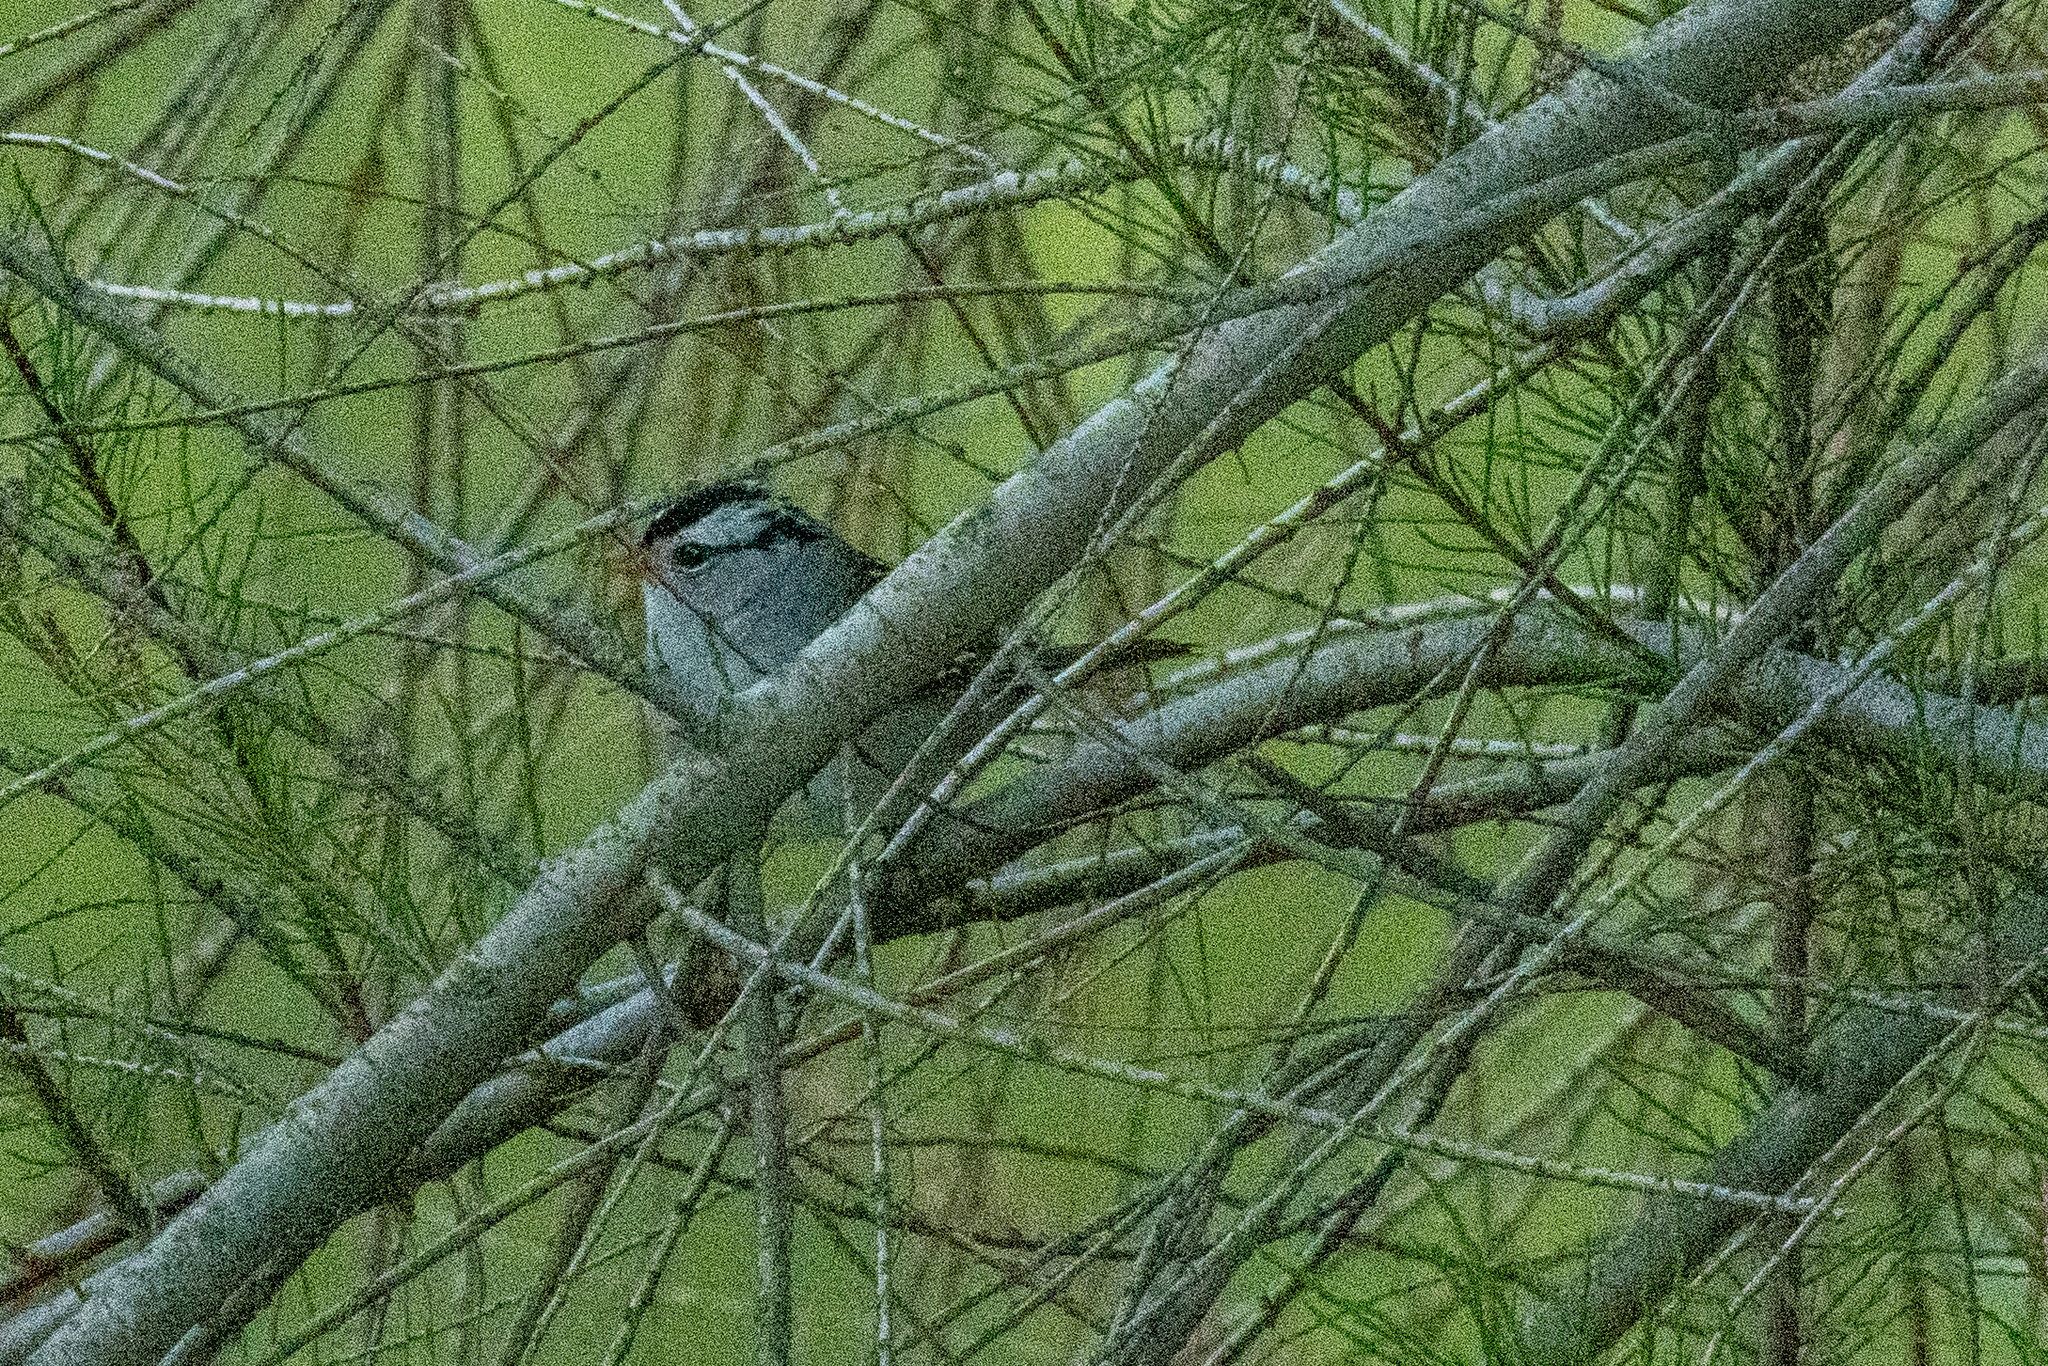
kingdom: Animalia
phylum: Chordata
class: Aves
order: Passeriformes
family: Passerellidae
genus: Zonotrichia
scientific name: Zonotrichia leucophrys
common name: White-crowned sparrow
